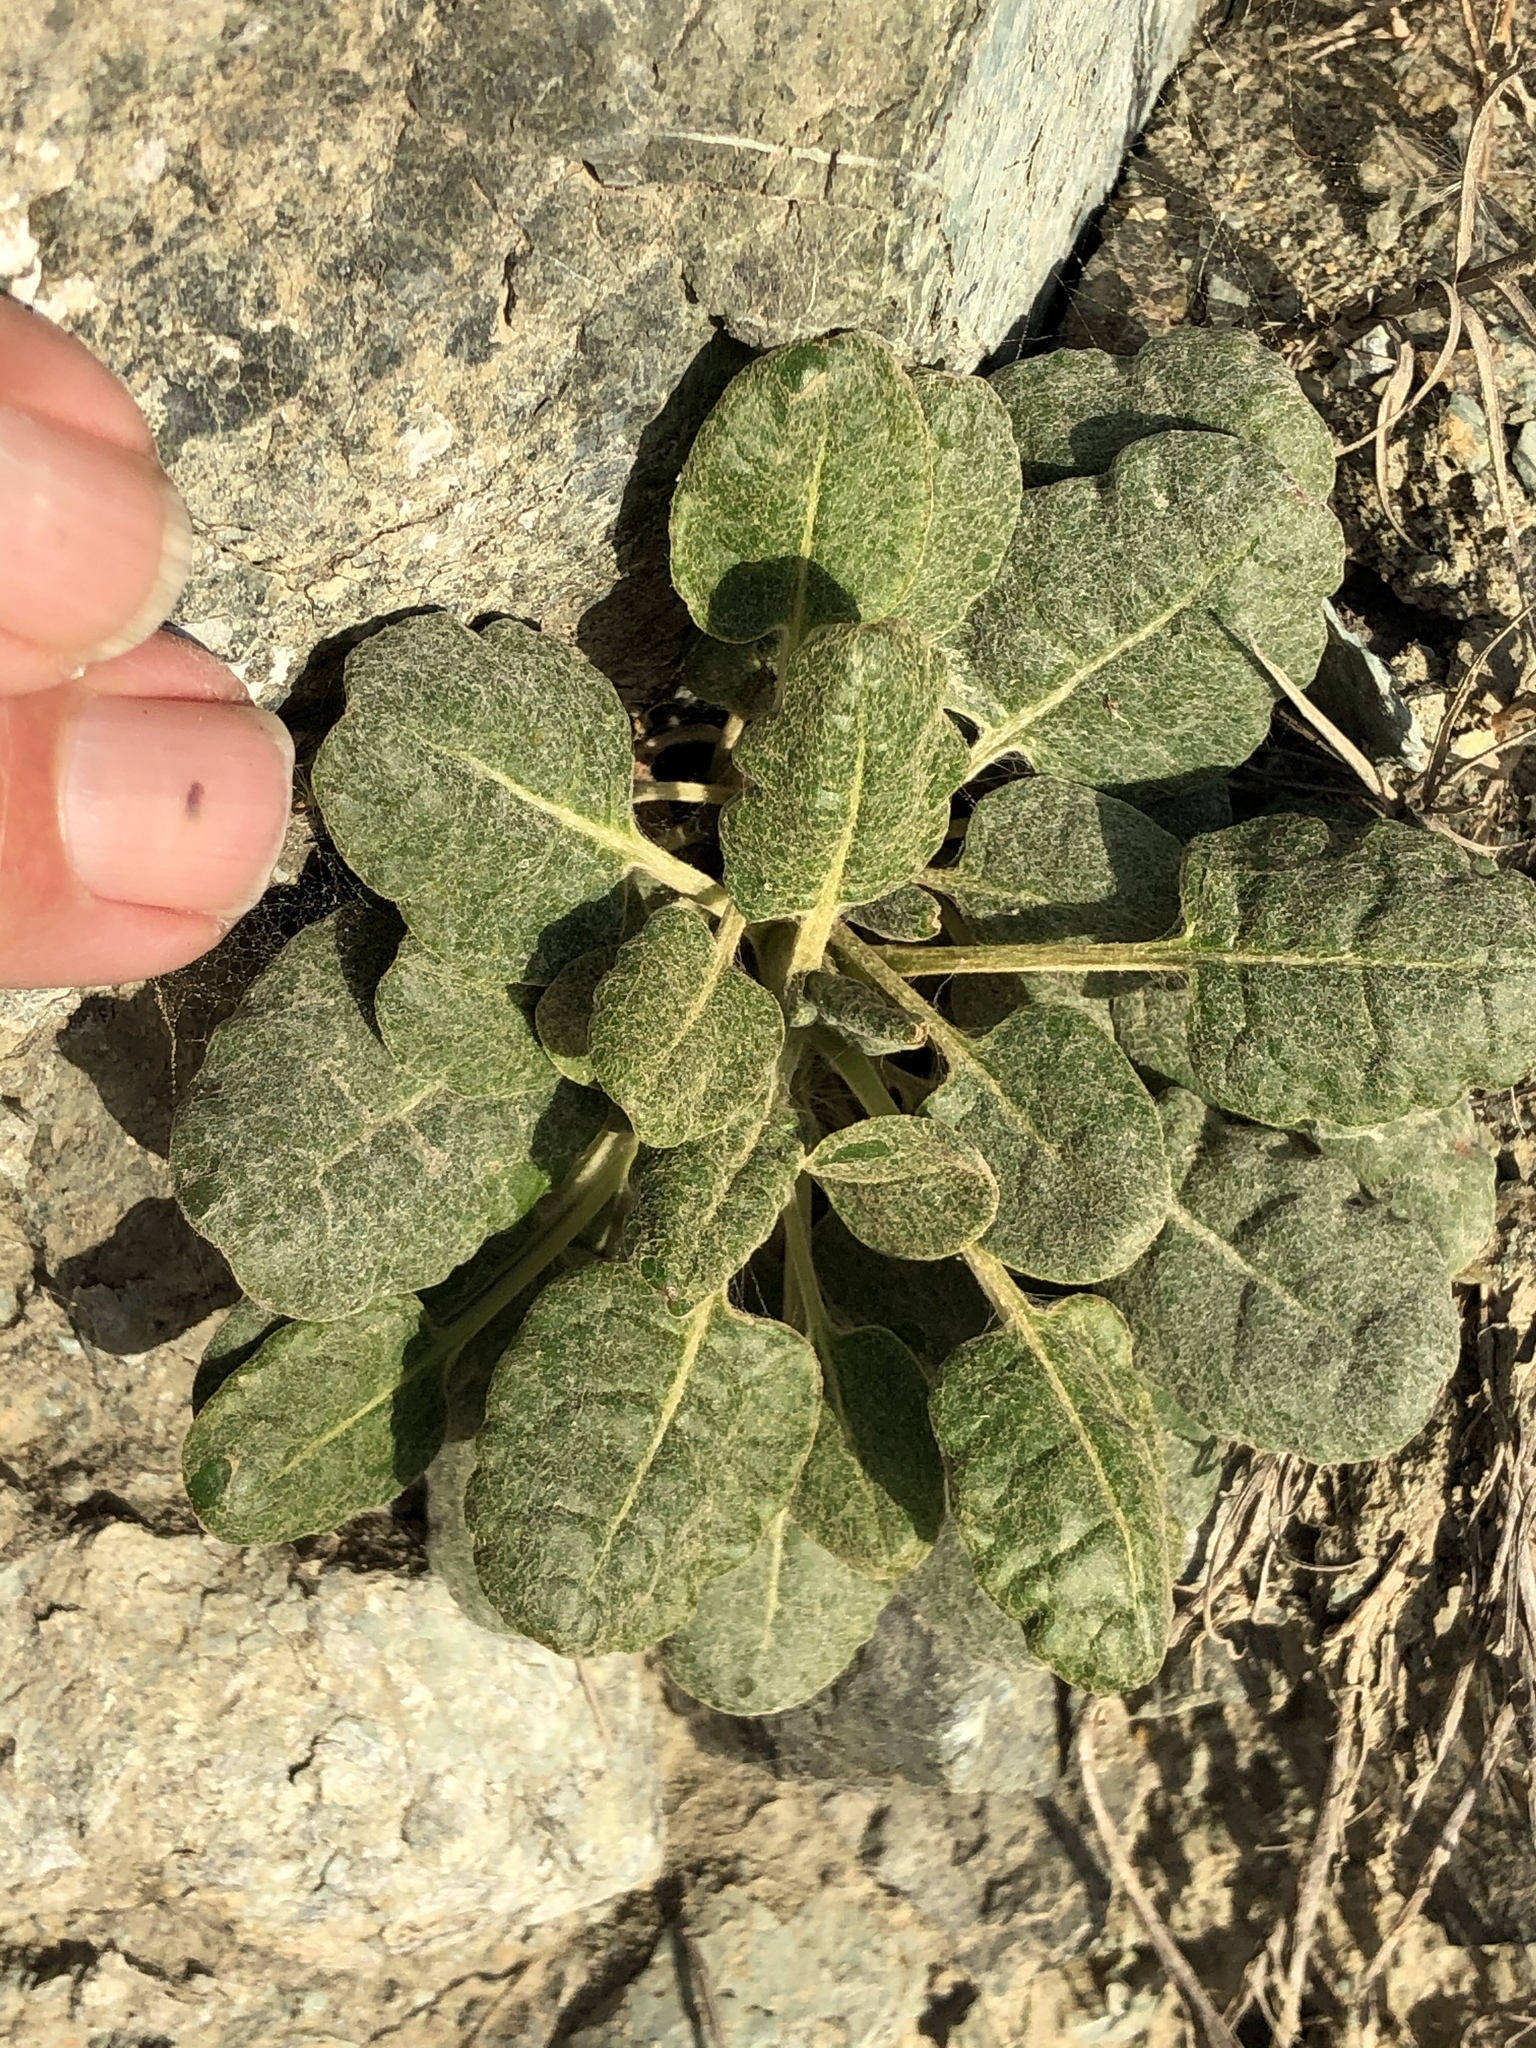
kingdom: Plantae
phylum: Tracheophyta
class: Magnoliopsida
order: Caryophyllales
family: Polygonaceae
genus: Eriogonum
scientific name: Eriogonum latifolium
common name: Seaside wild buckwheat
